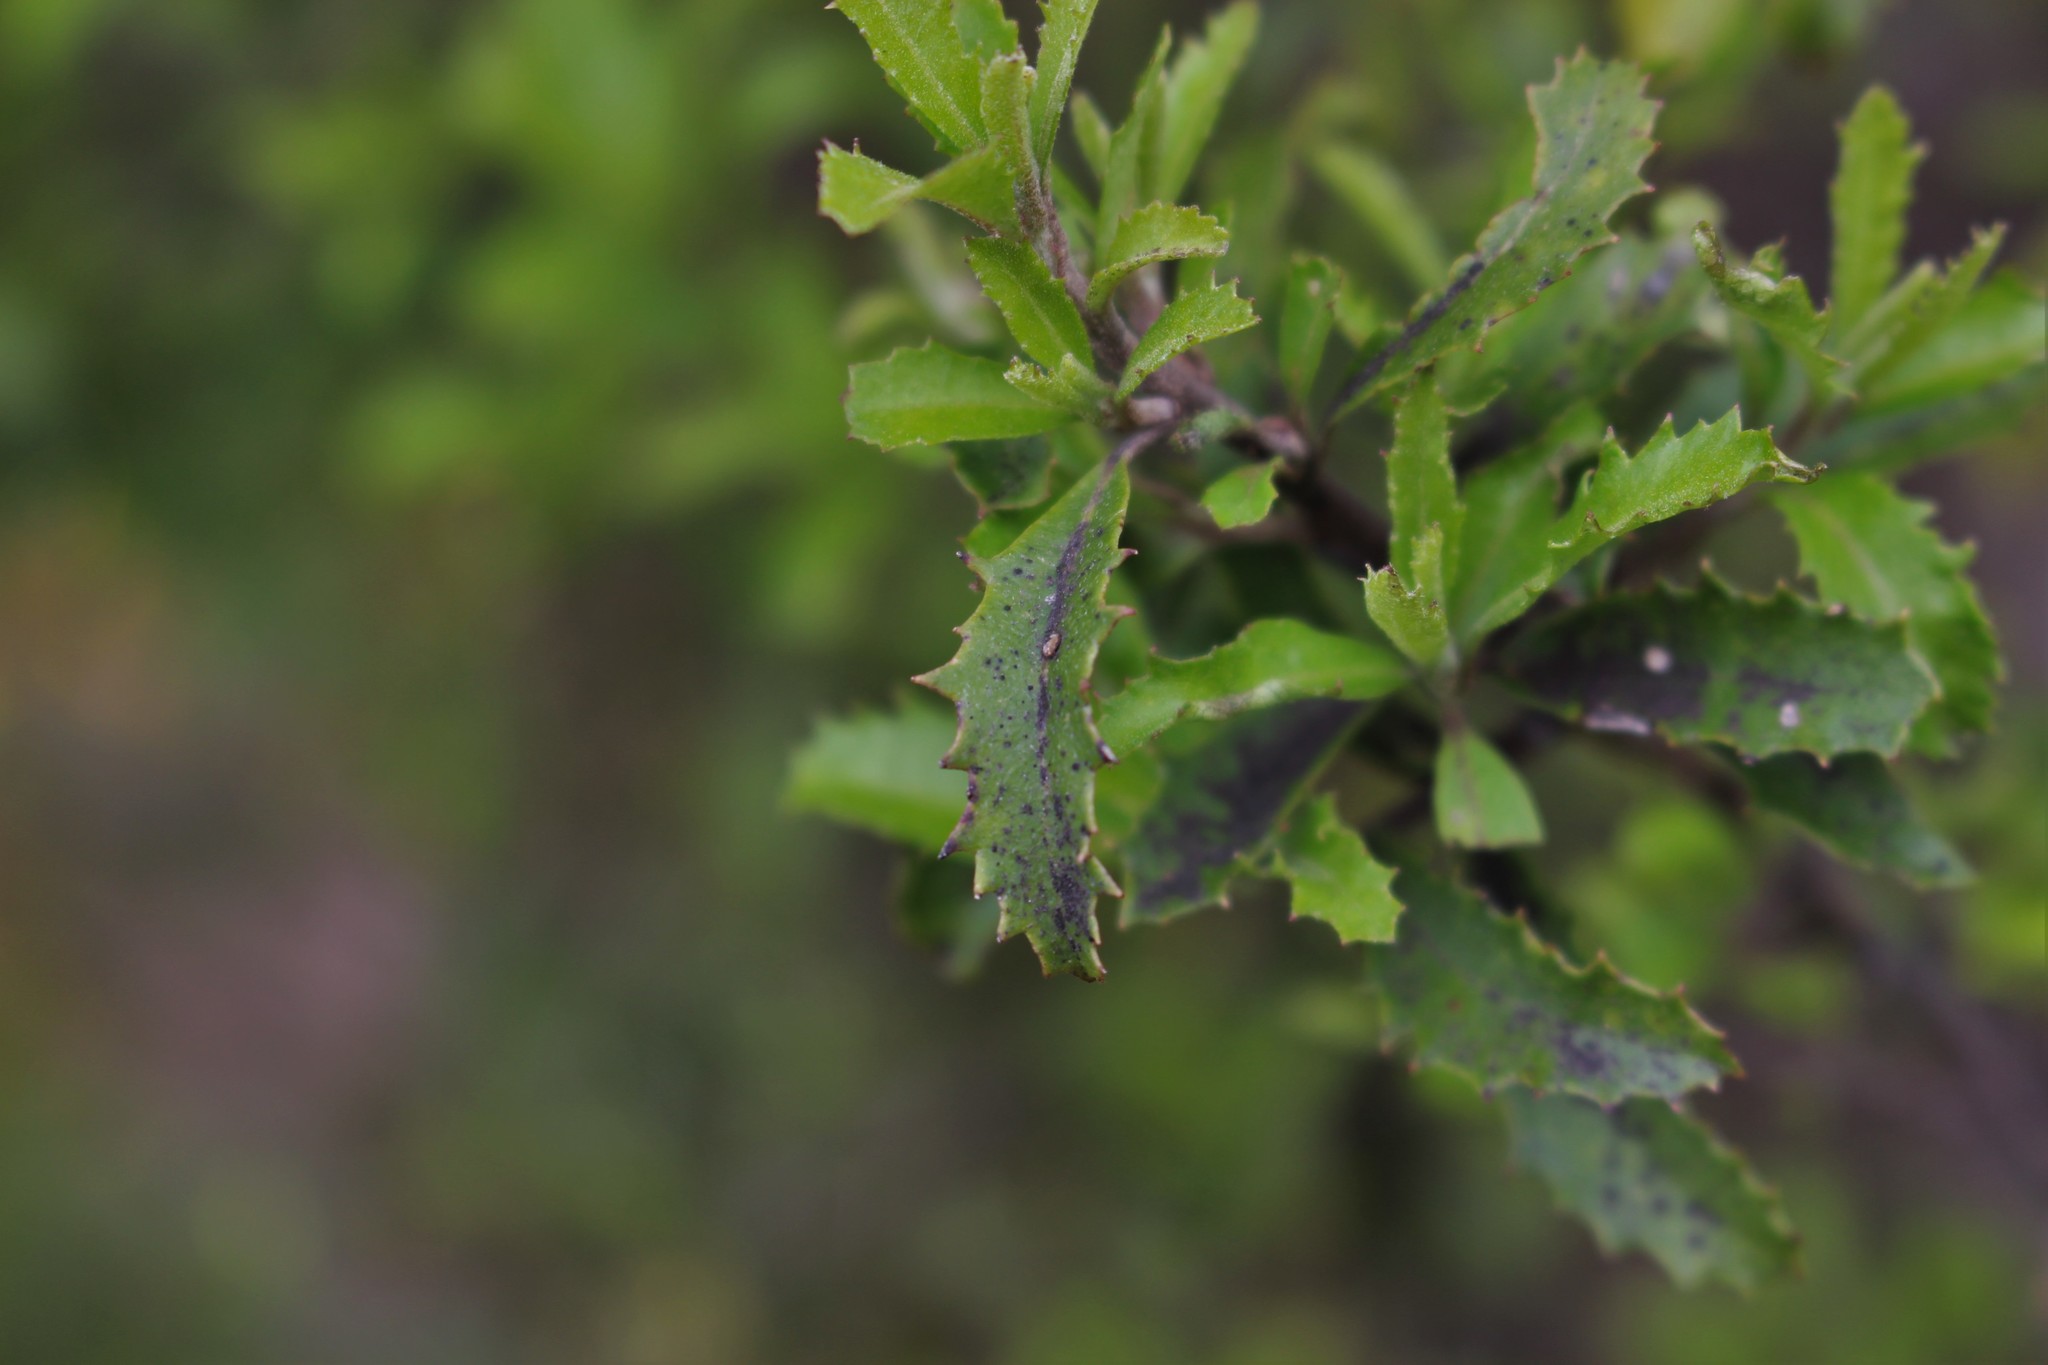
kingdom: Plantae
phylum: Tracheophyta
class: Magnoliopsida
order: Malvales
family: Malvaceae
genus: Hoheria
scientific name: Hoheria angustifolia
